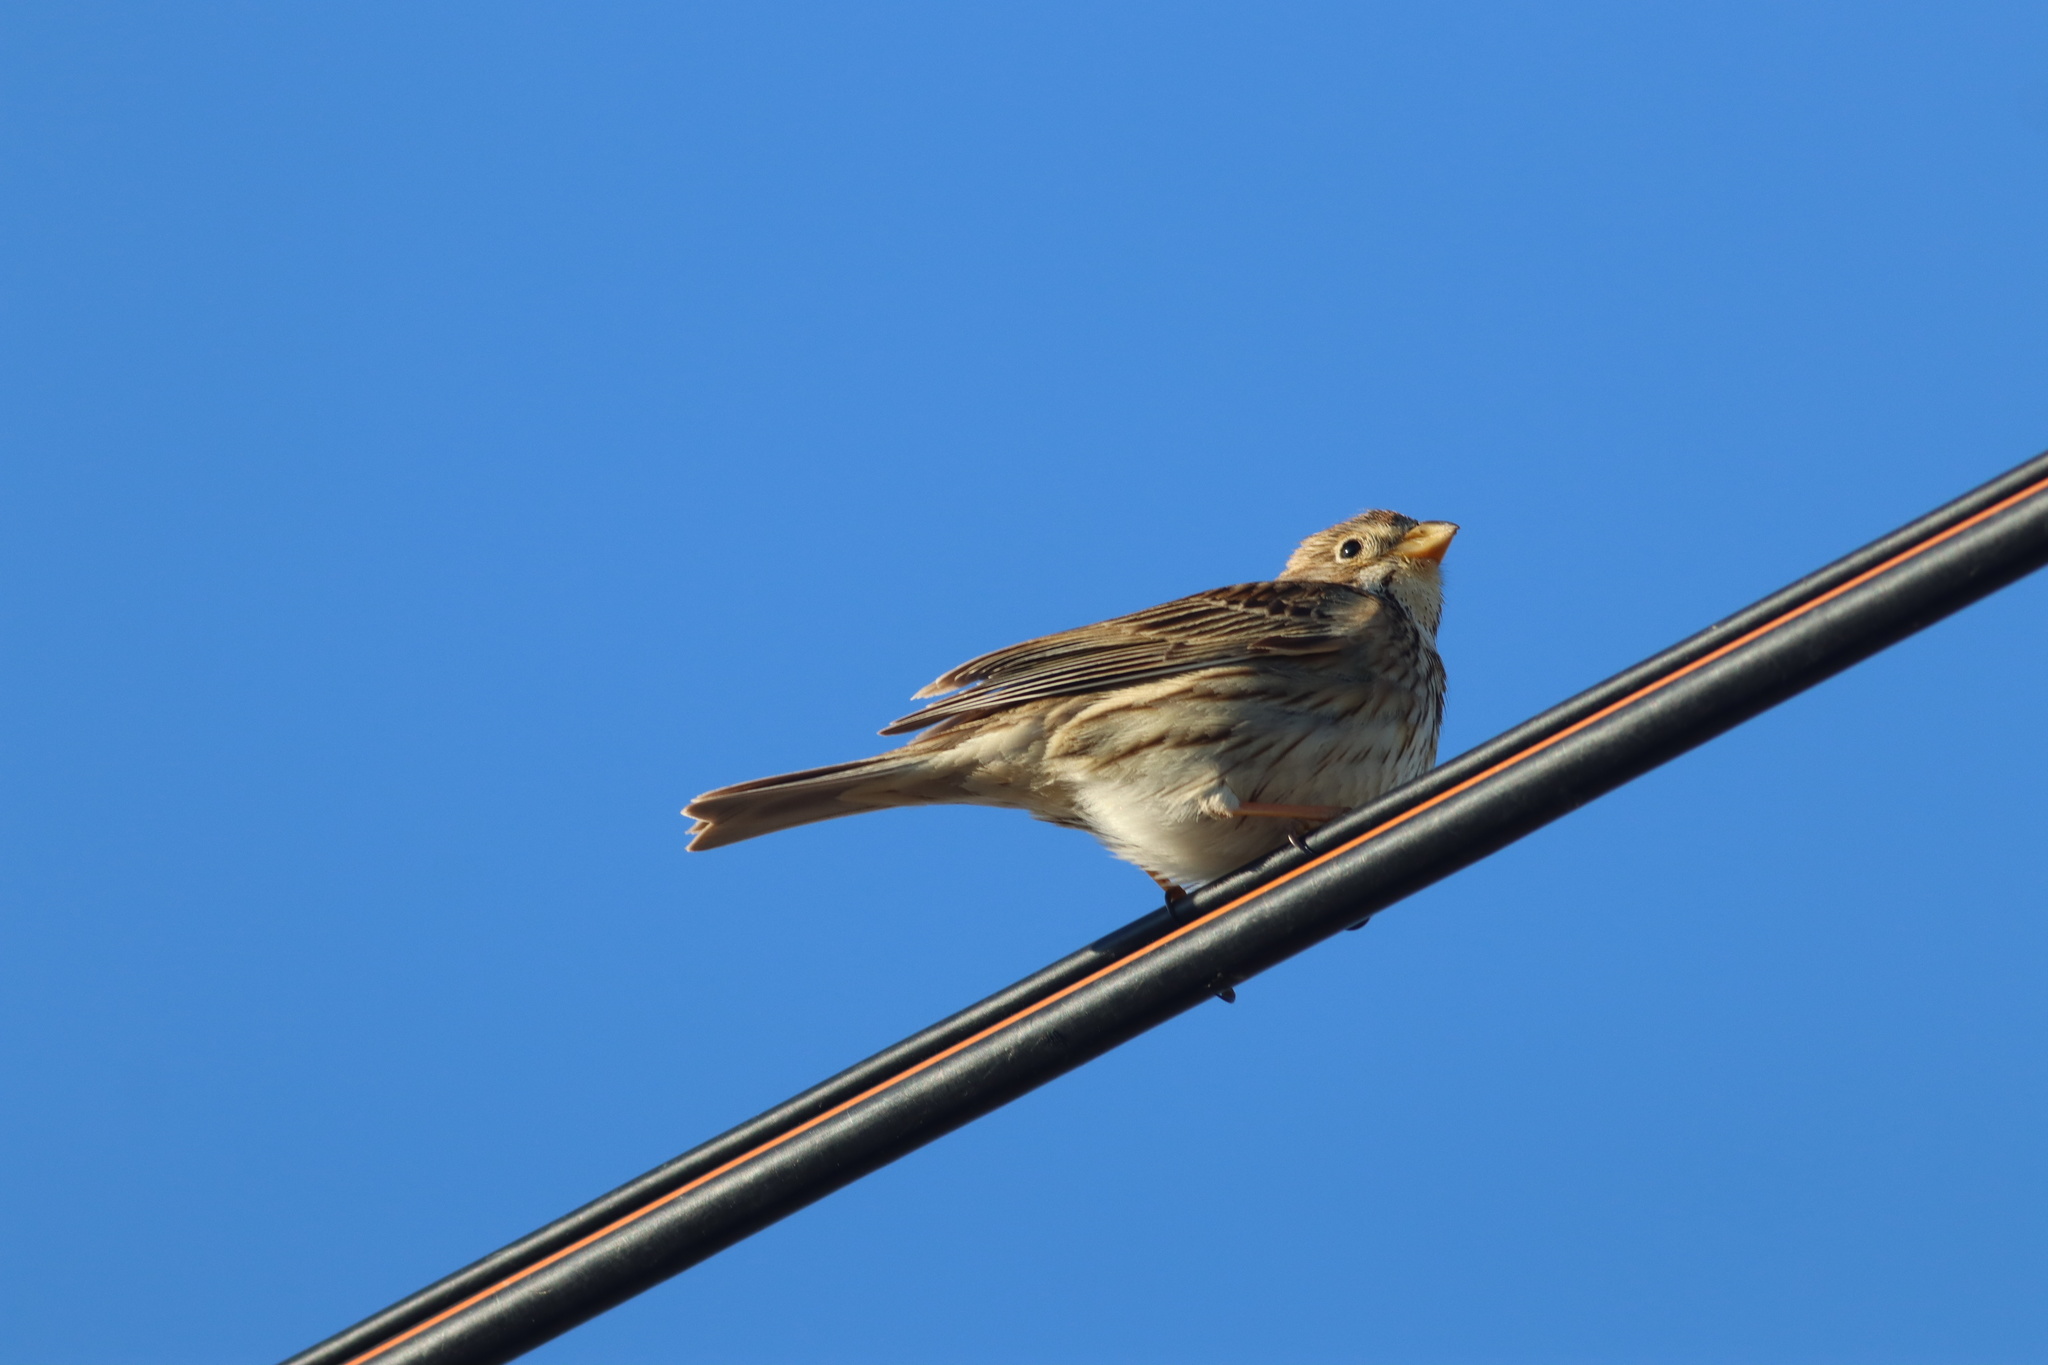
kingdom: Animalia
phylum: Chordata
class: Aves
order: Passeriformes
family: Emberizidae
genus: Emberiza
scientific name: Emberiza calandra
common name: Corn bunting
